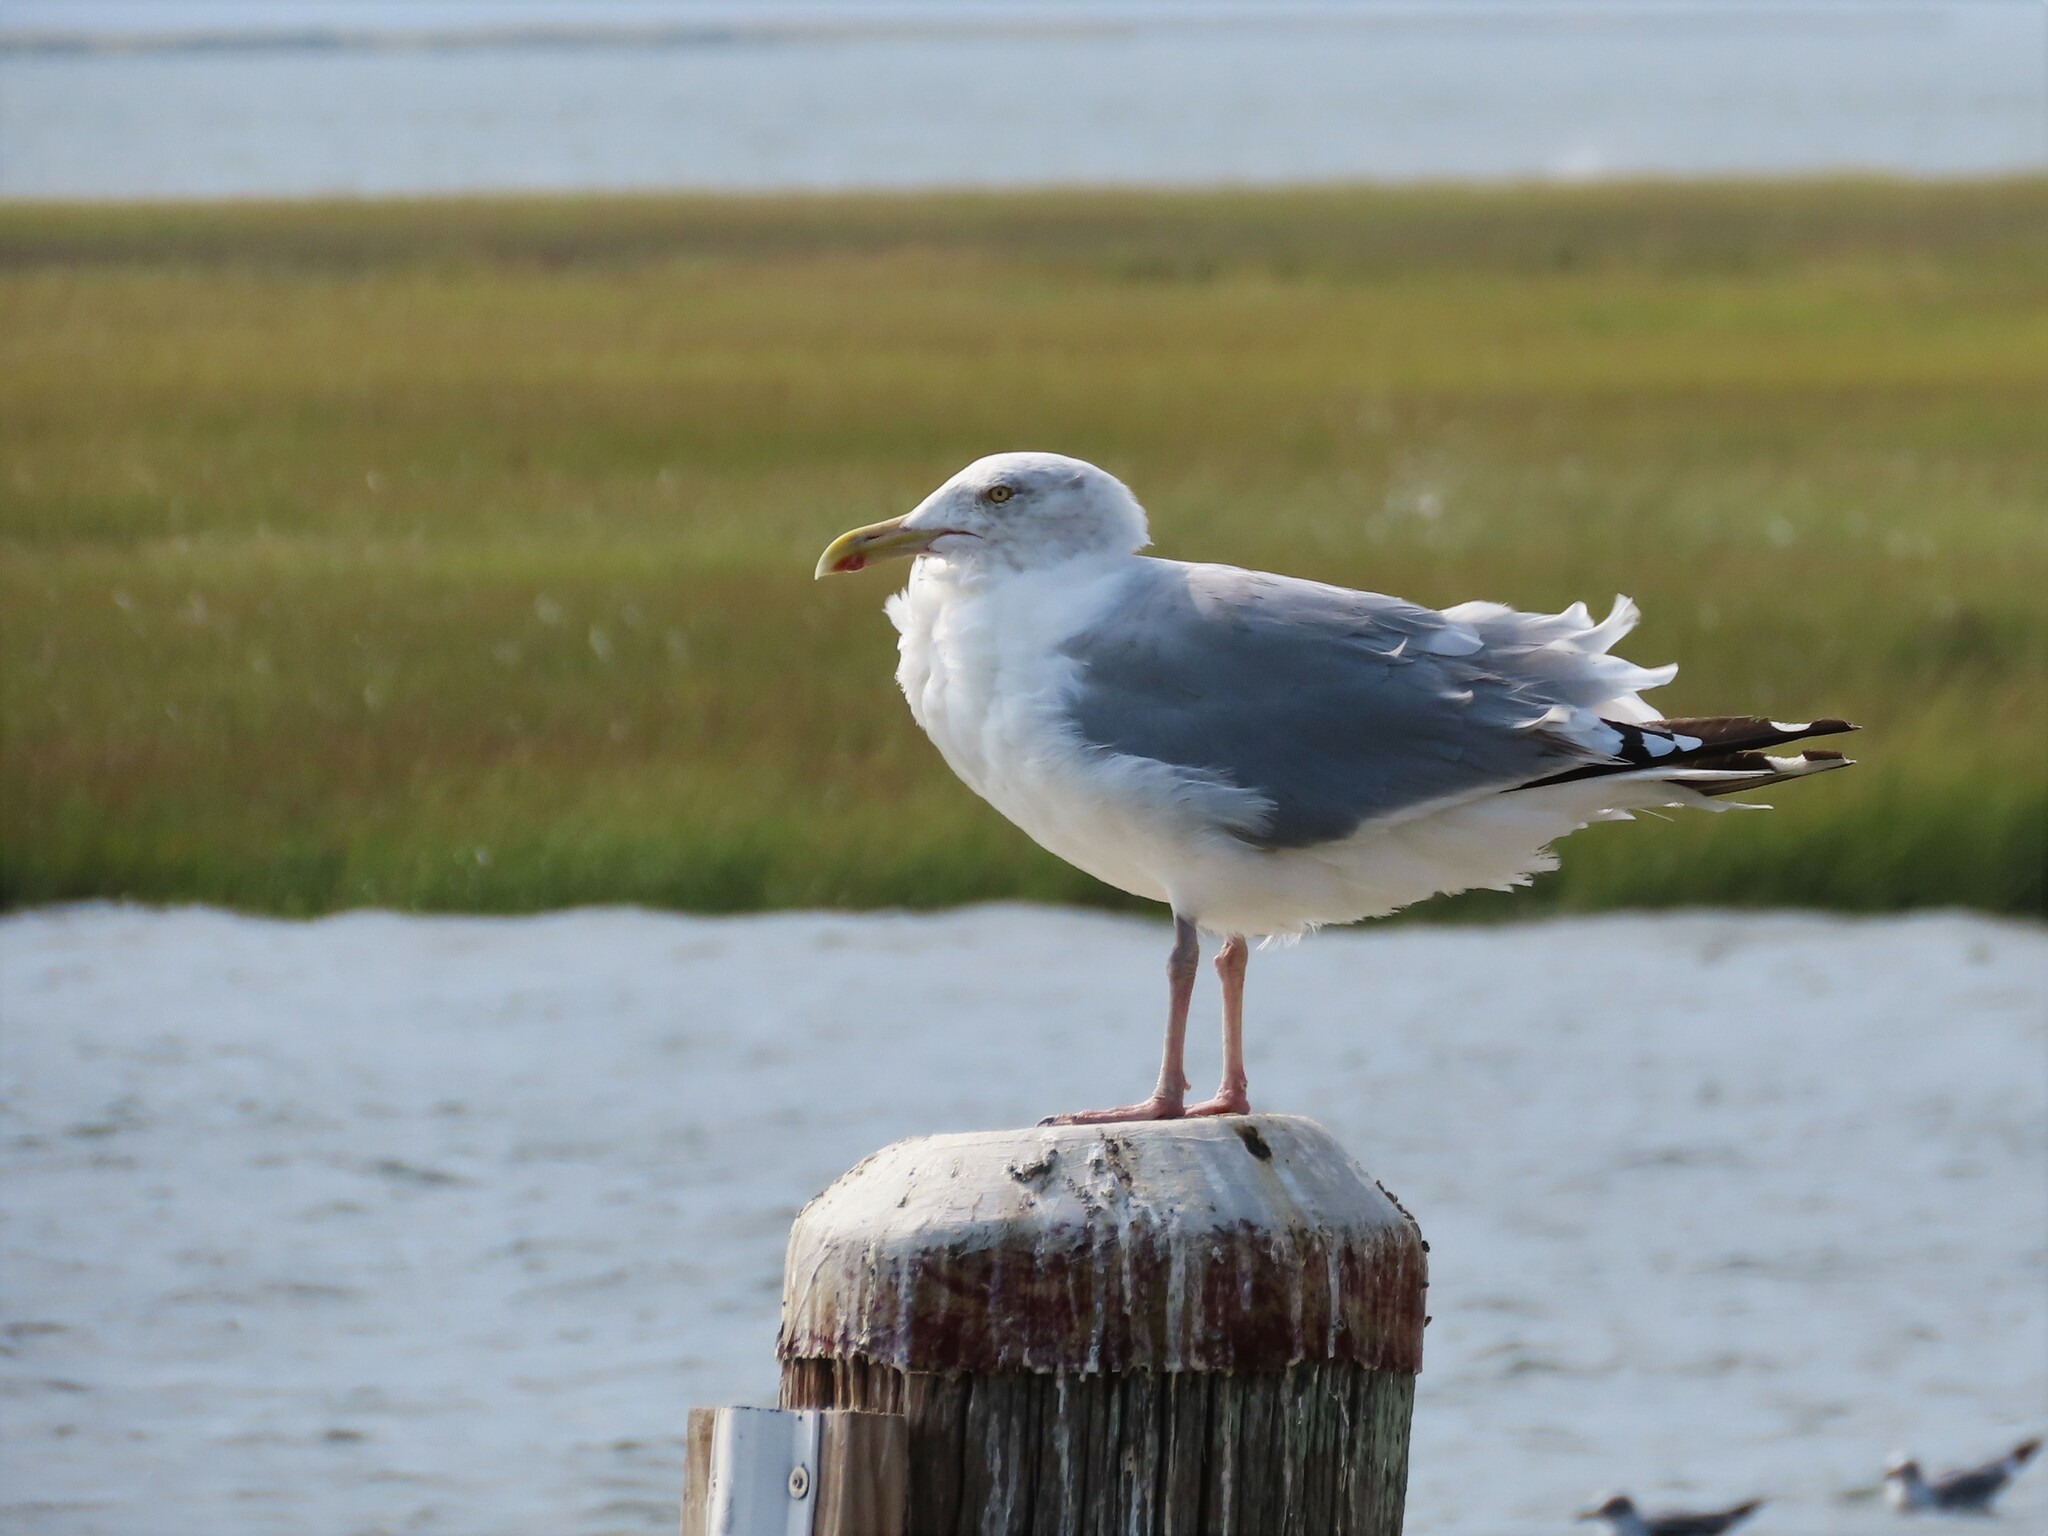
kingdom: Animalia
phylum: Chordata
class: Aves
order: Charadriiformes
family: Laridae
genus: Larus
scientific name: Larus argentatus
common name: Herring gull
